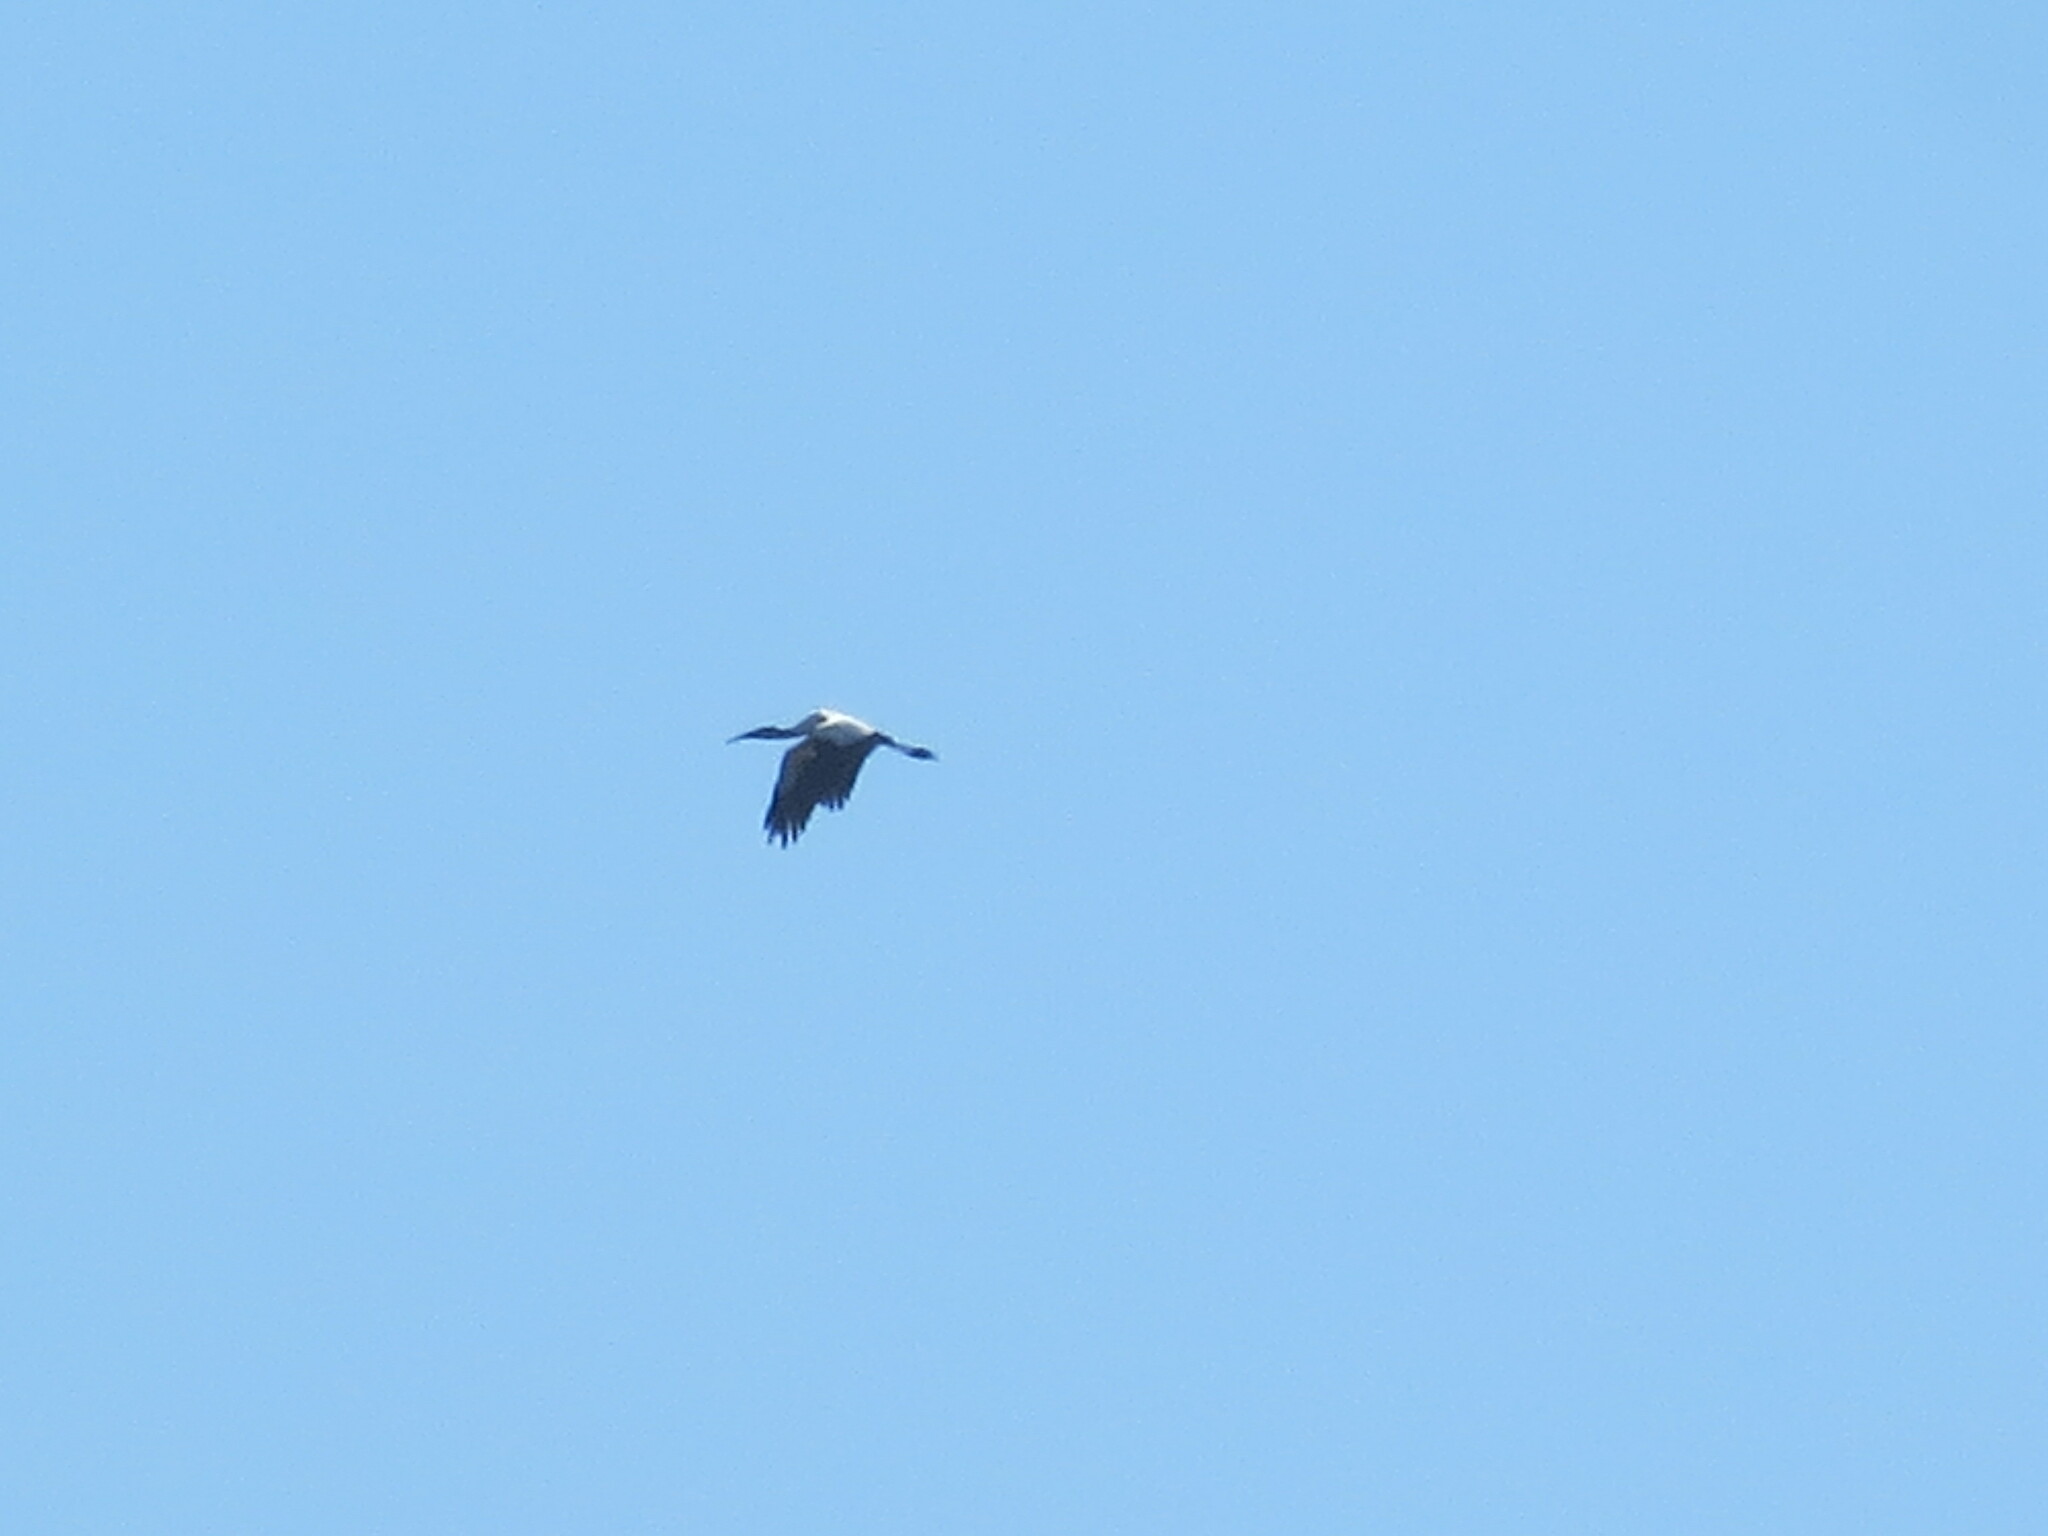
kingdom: Animalia
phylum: Chordata
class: Aves
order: Ciconiiformes
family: Ciconiidae
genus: Mycteria
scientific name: Mycteria americana
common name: Wood stork
